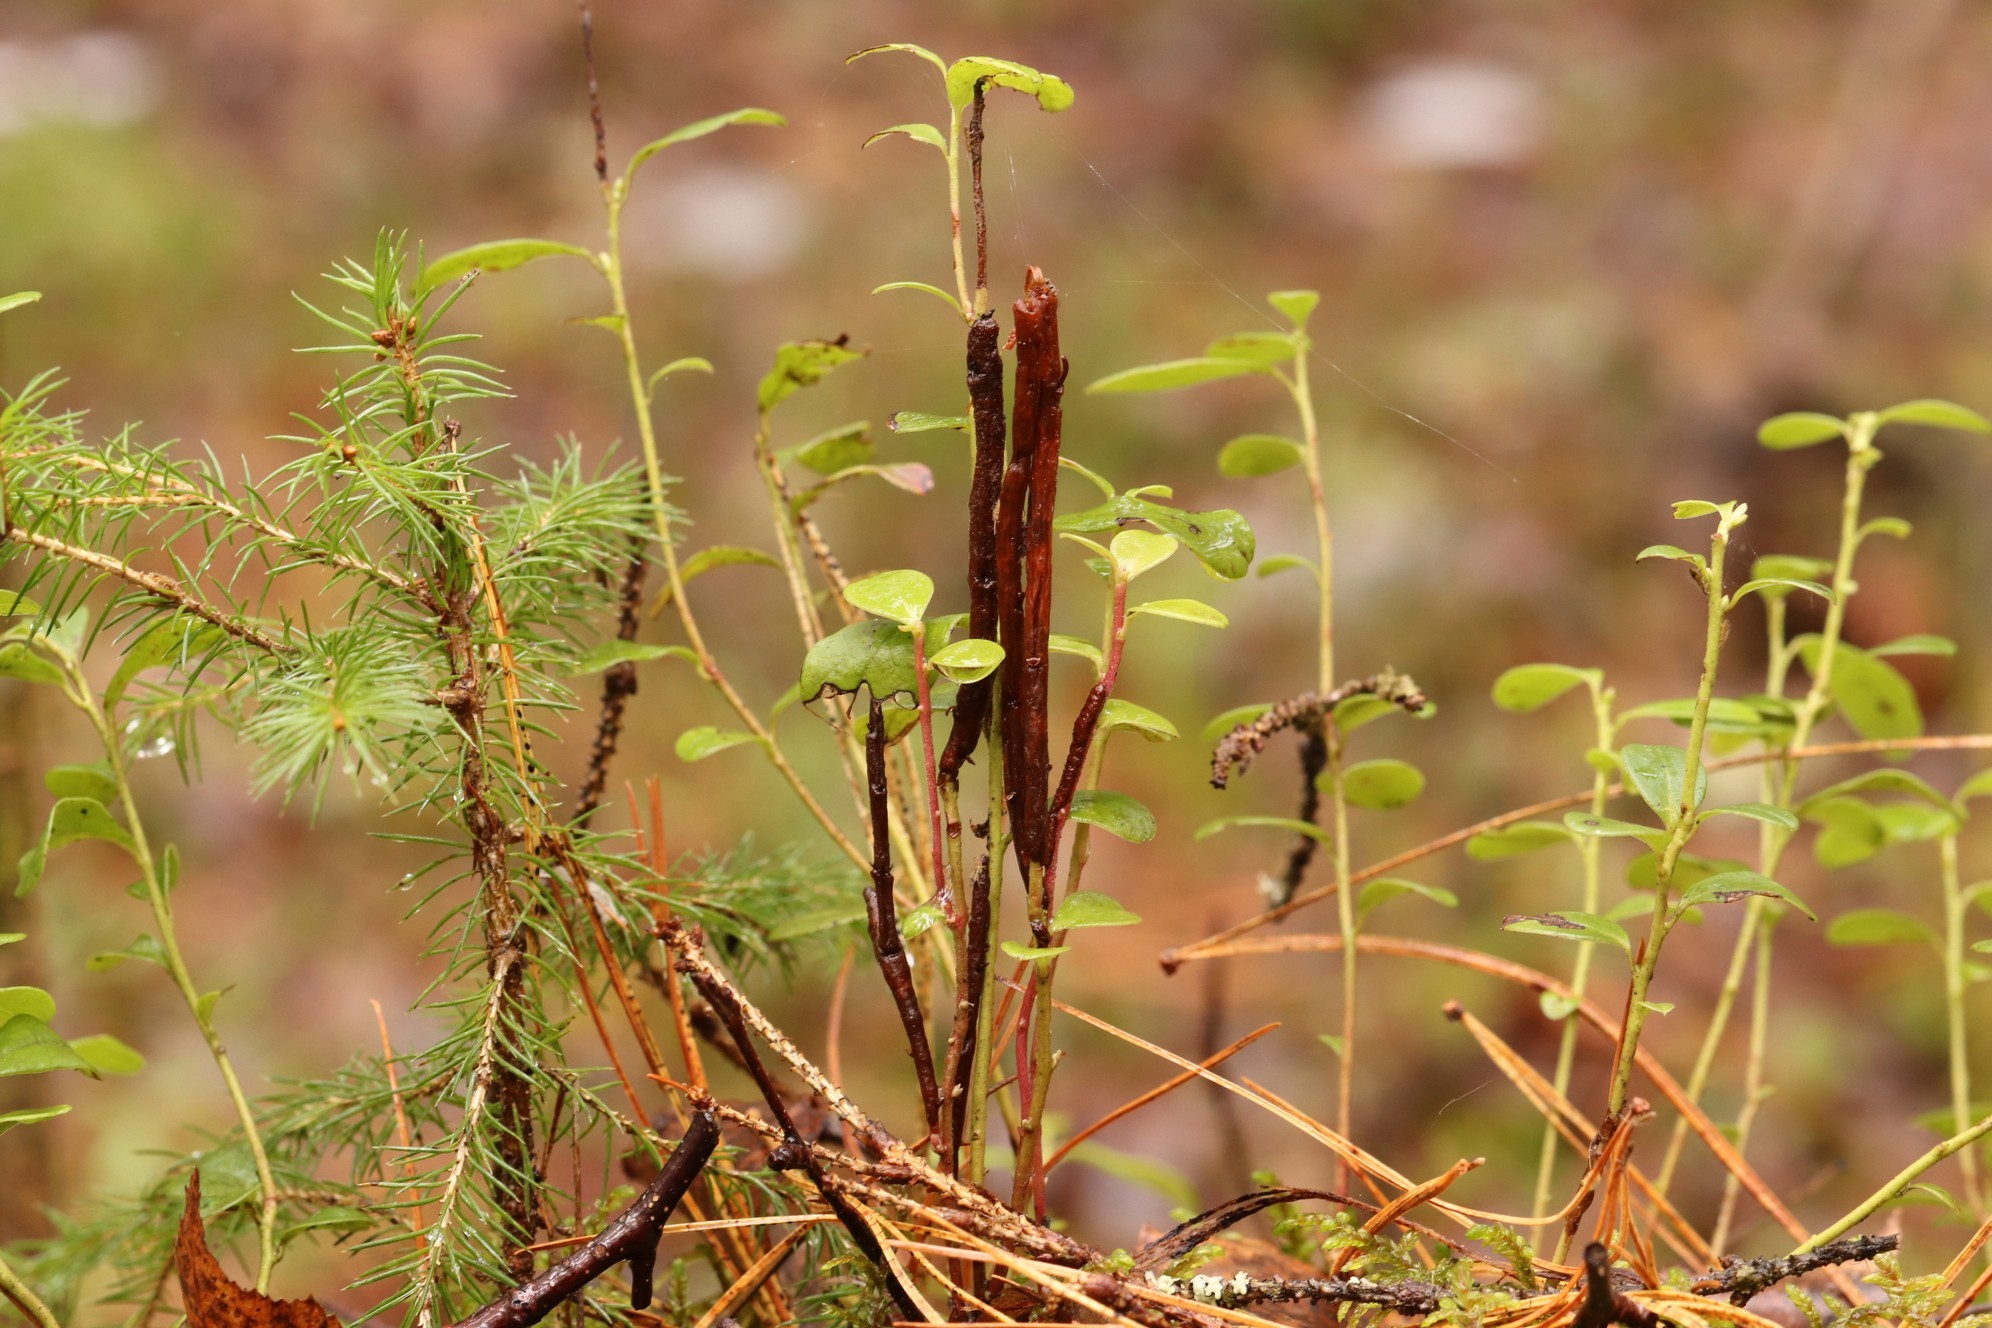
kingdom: Fungi
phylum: Basidiomycota
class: Pucciniomycetes
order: Pucciniales
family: Pucciniastraceae
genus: Calyptospora
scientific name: Calyptospora columnaris
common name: Huckleberry broom rust fungus
